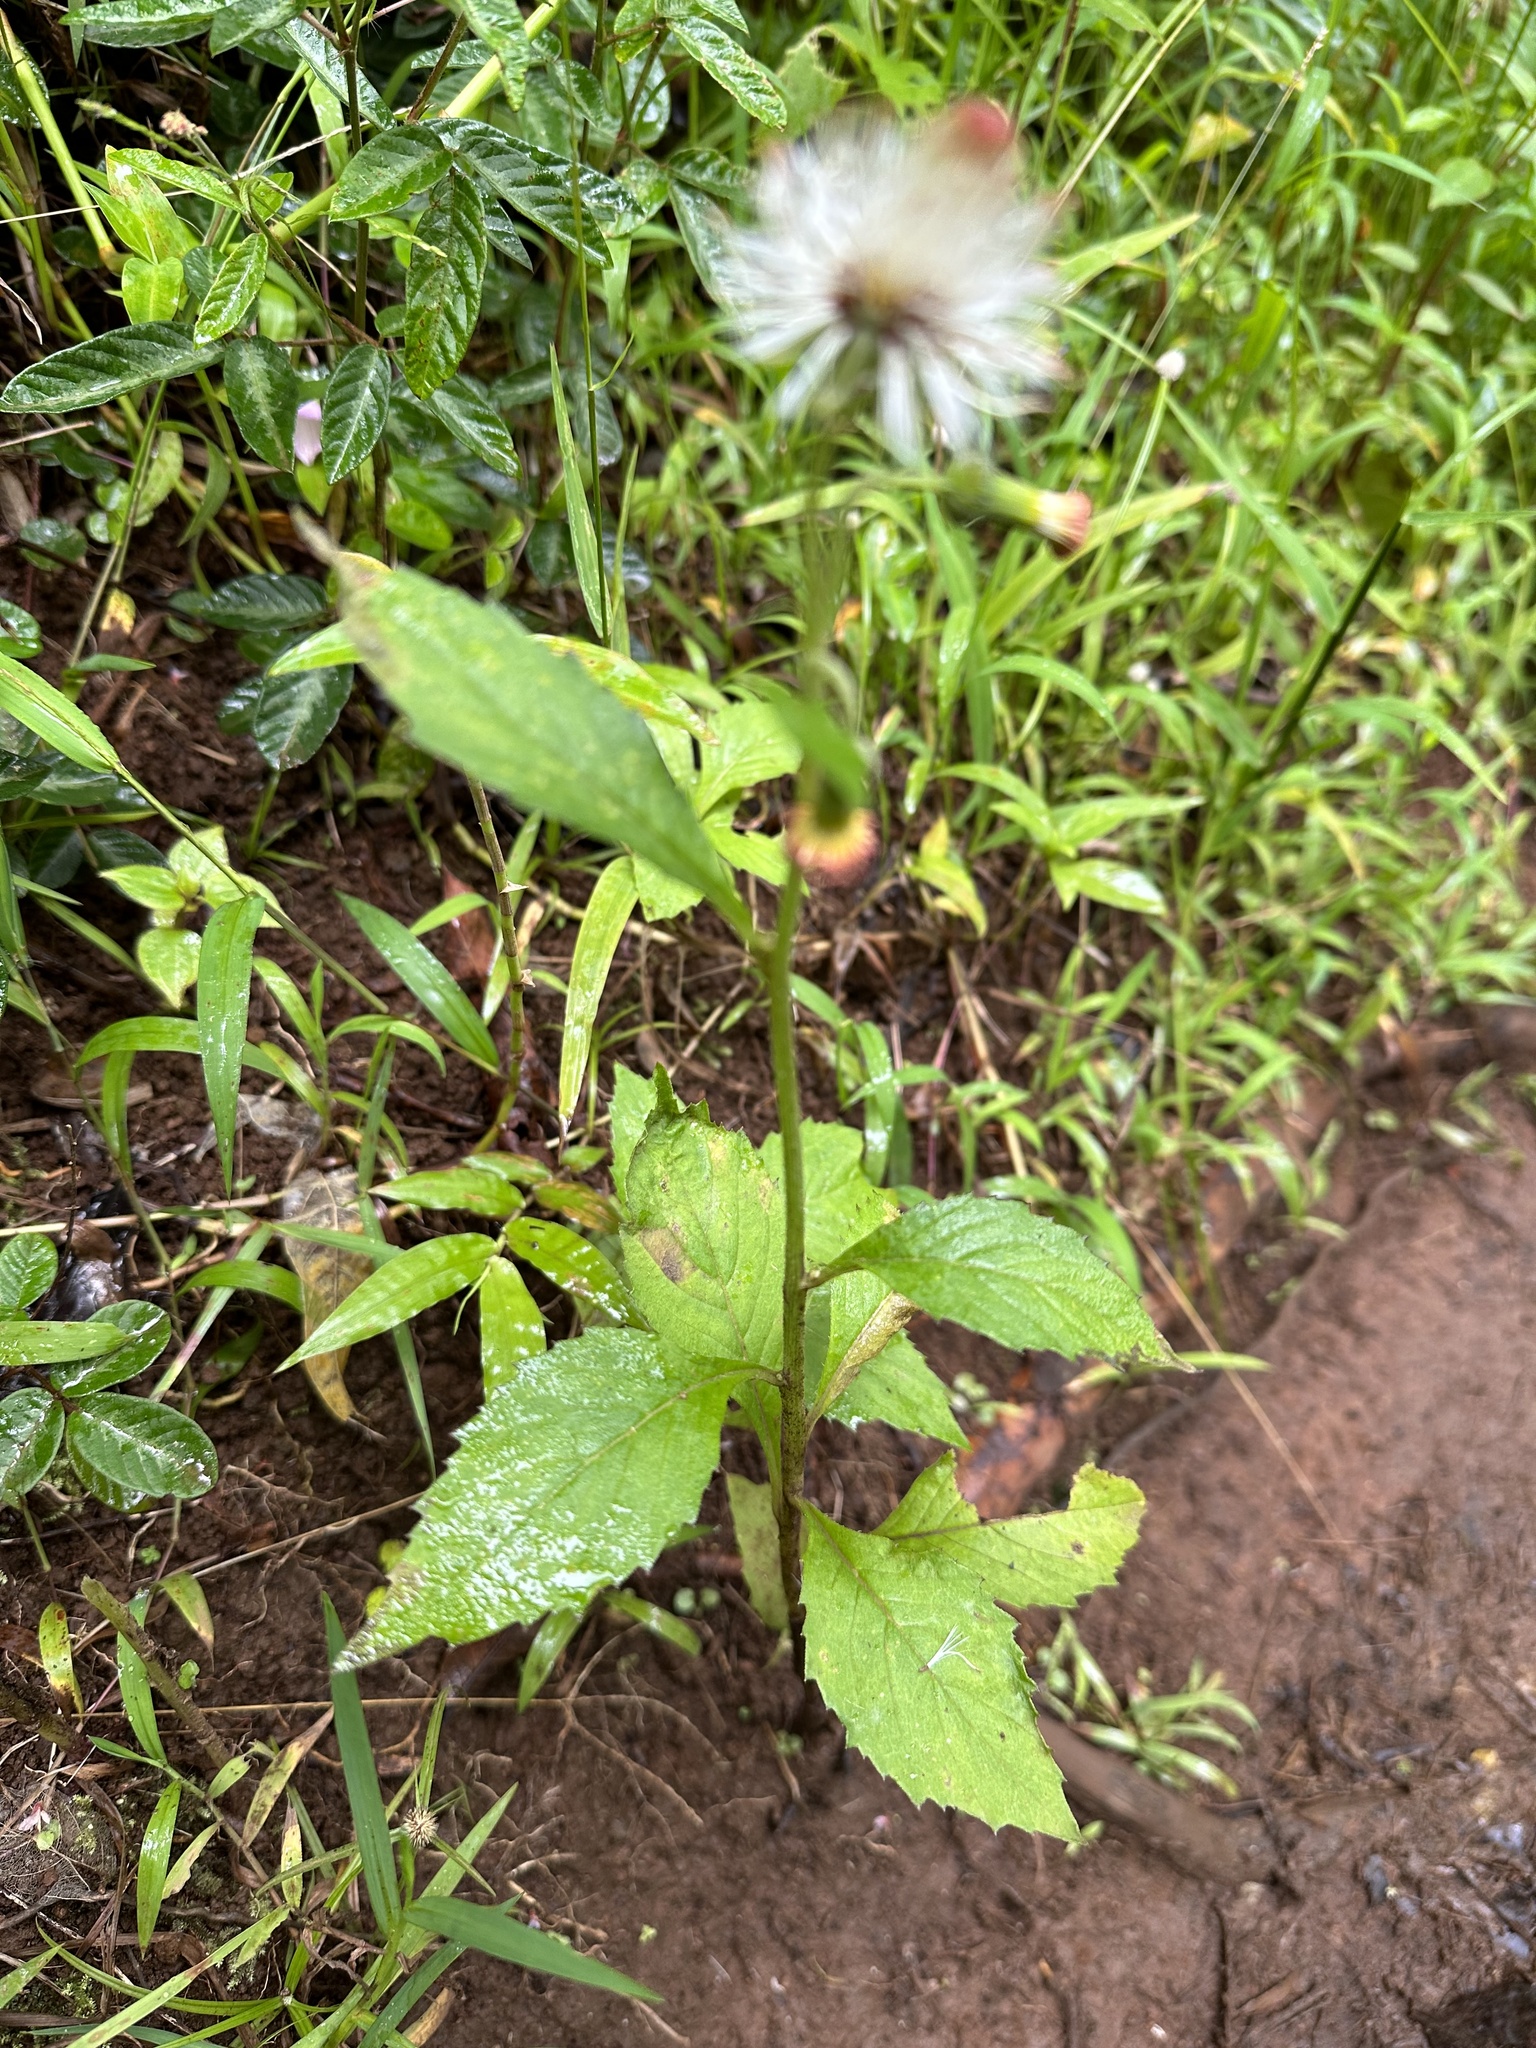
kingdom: Plantae
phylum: Tracheophyta
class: Magnoliopsida
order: Asterales
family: Asteraceae
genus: Crassocephalum
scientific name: Crassocephalum crepidioides
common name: Redflower ragleaf
